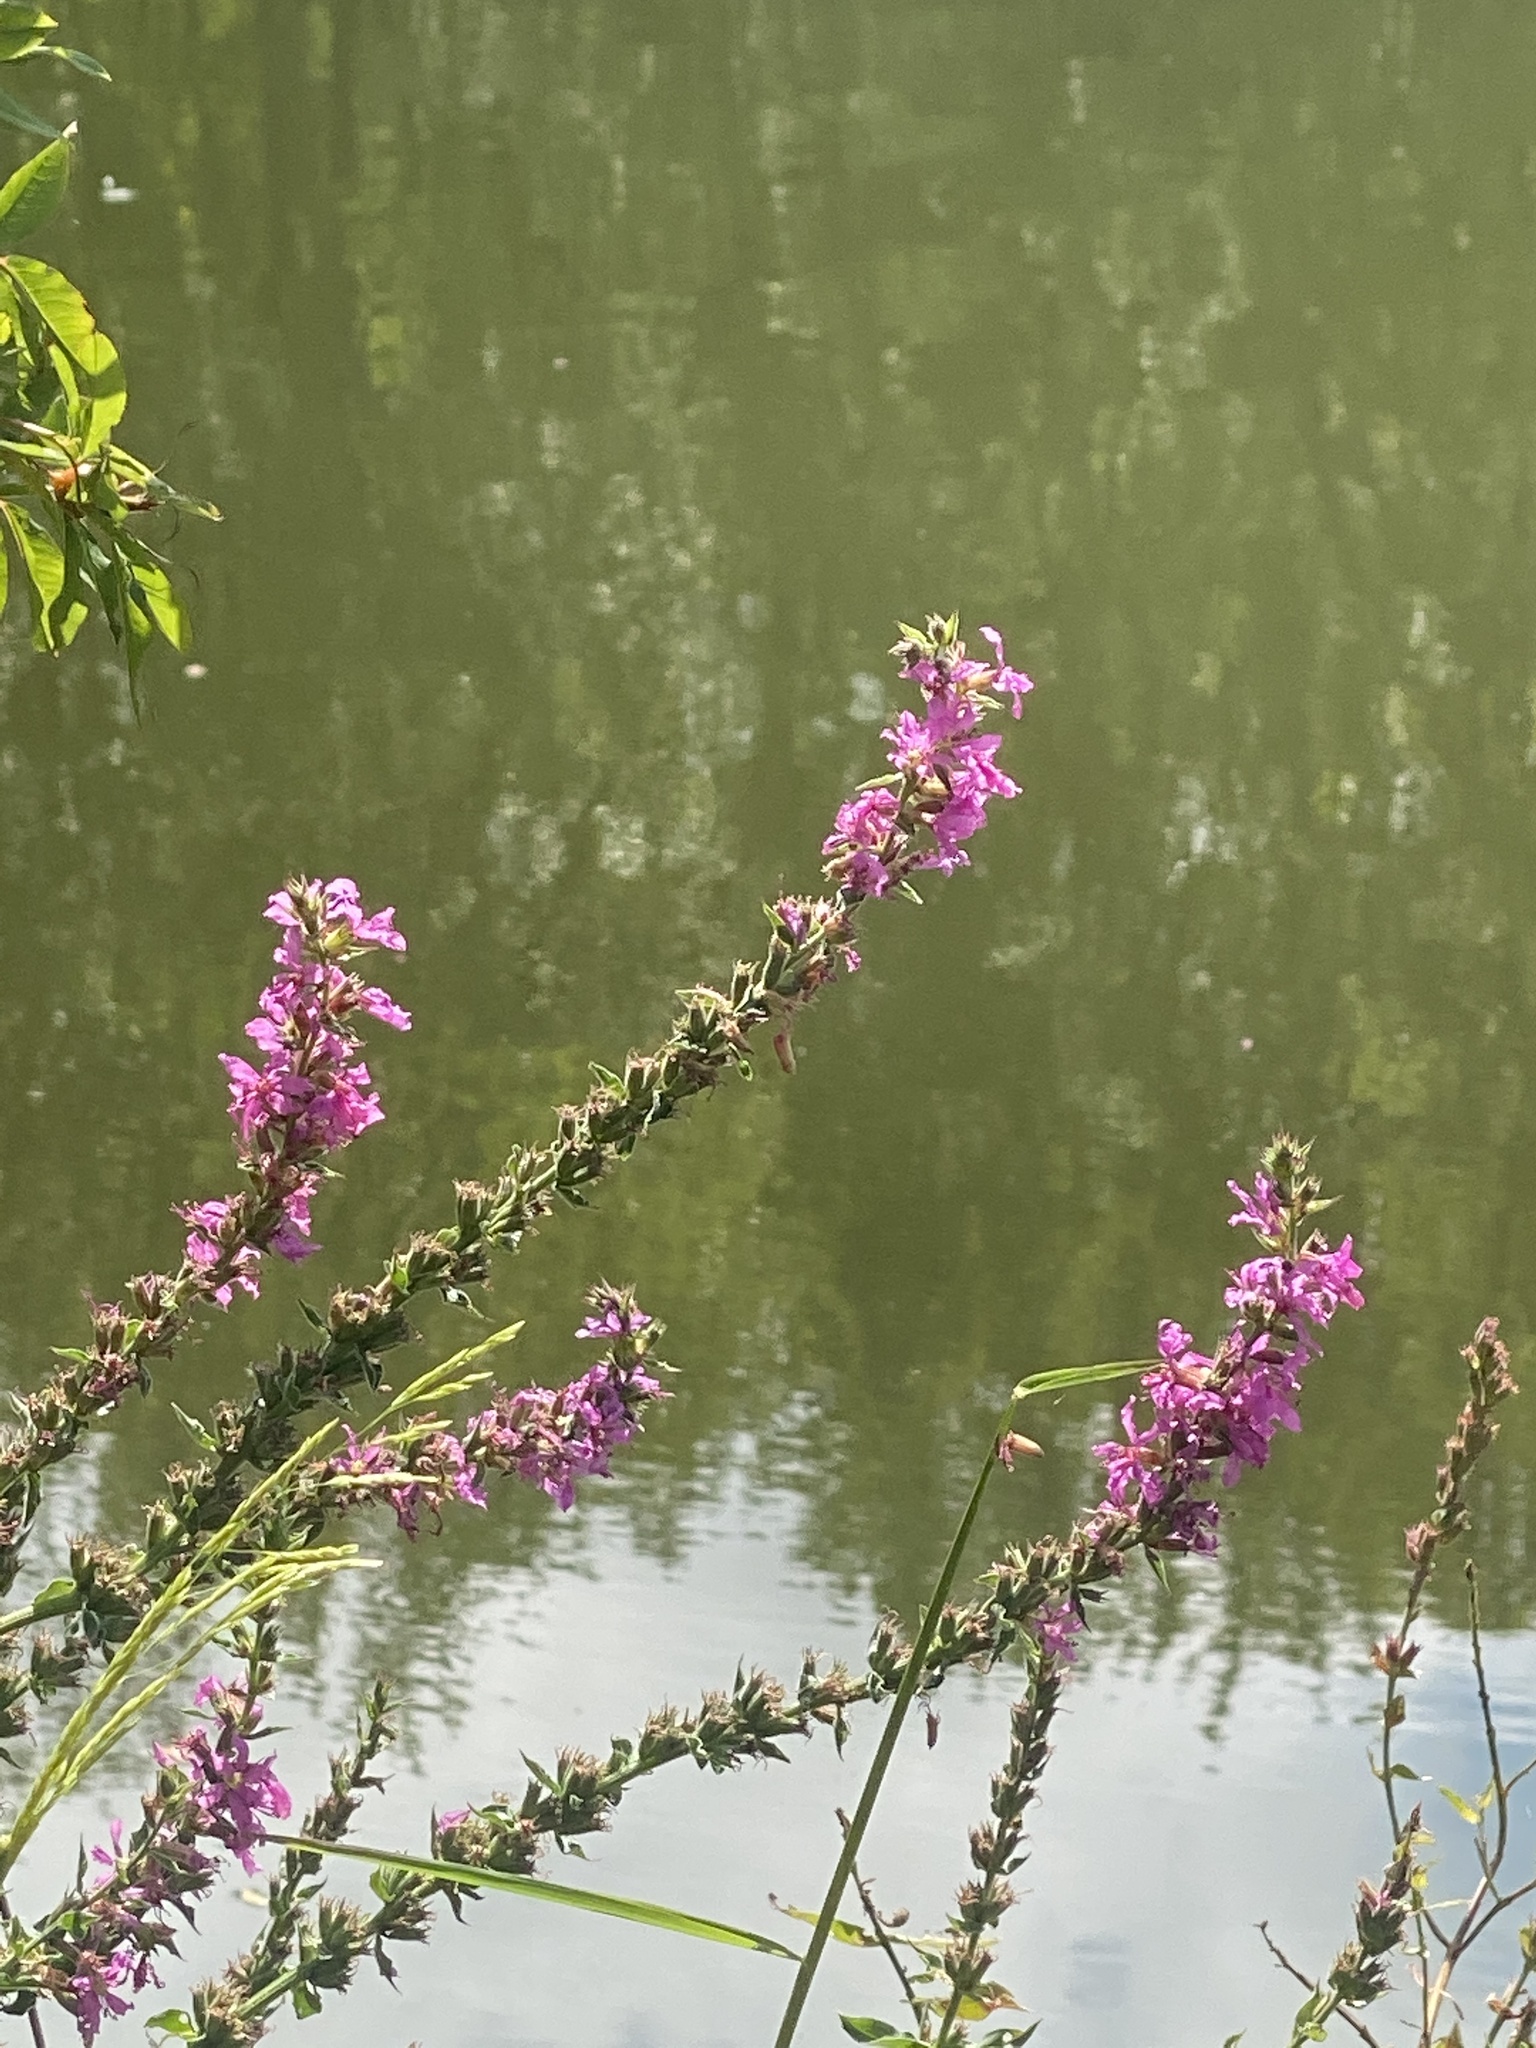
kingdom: Plantae
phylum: Tracheophyta
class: Magnoliopsida
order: Myrtales
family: Lythraceae
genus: Lythrum
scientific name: Lythrum salicaria
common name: Purple loosestrife
